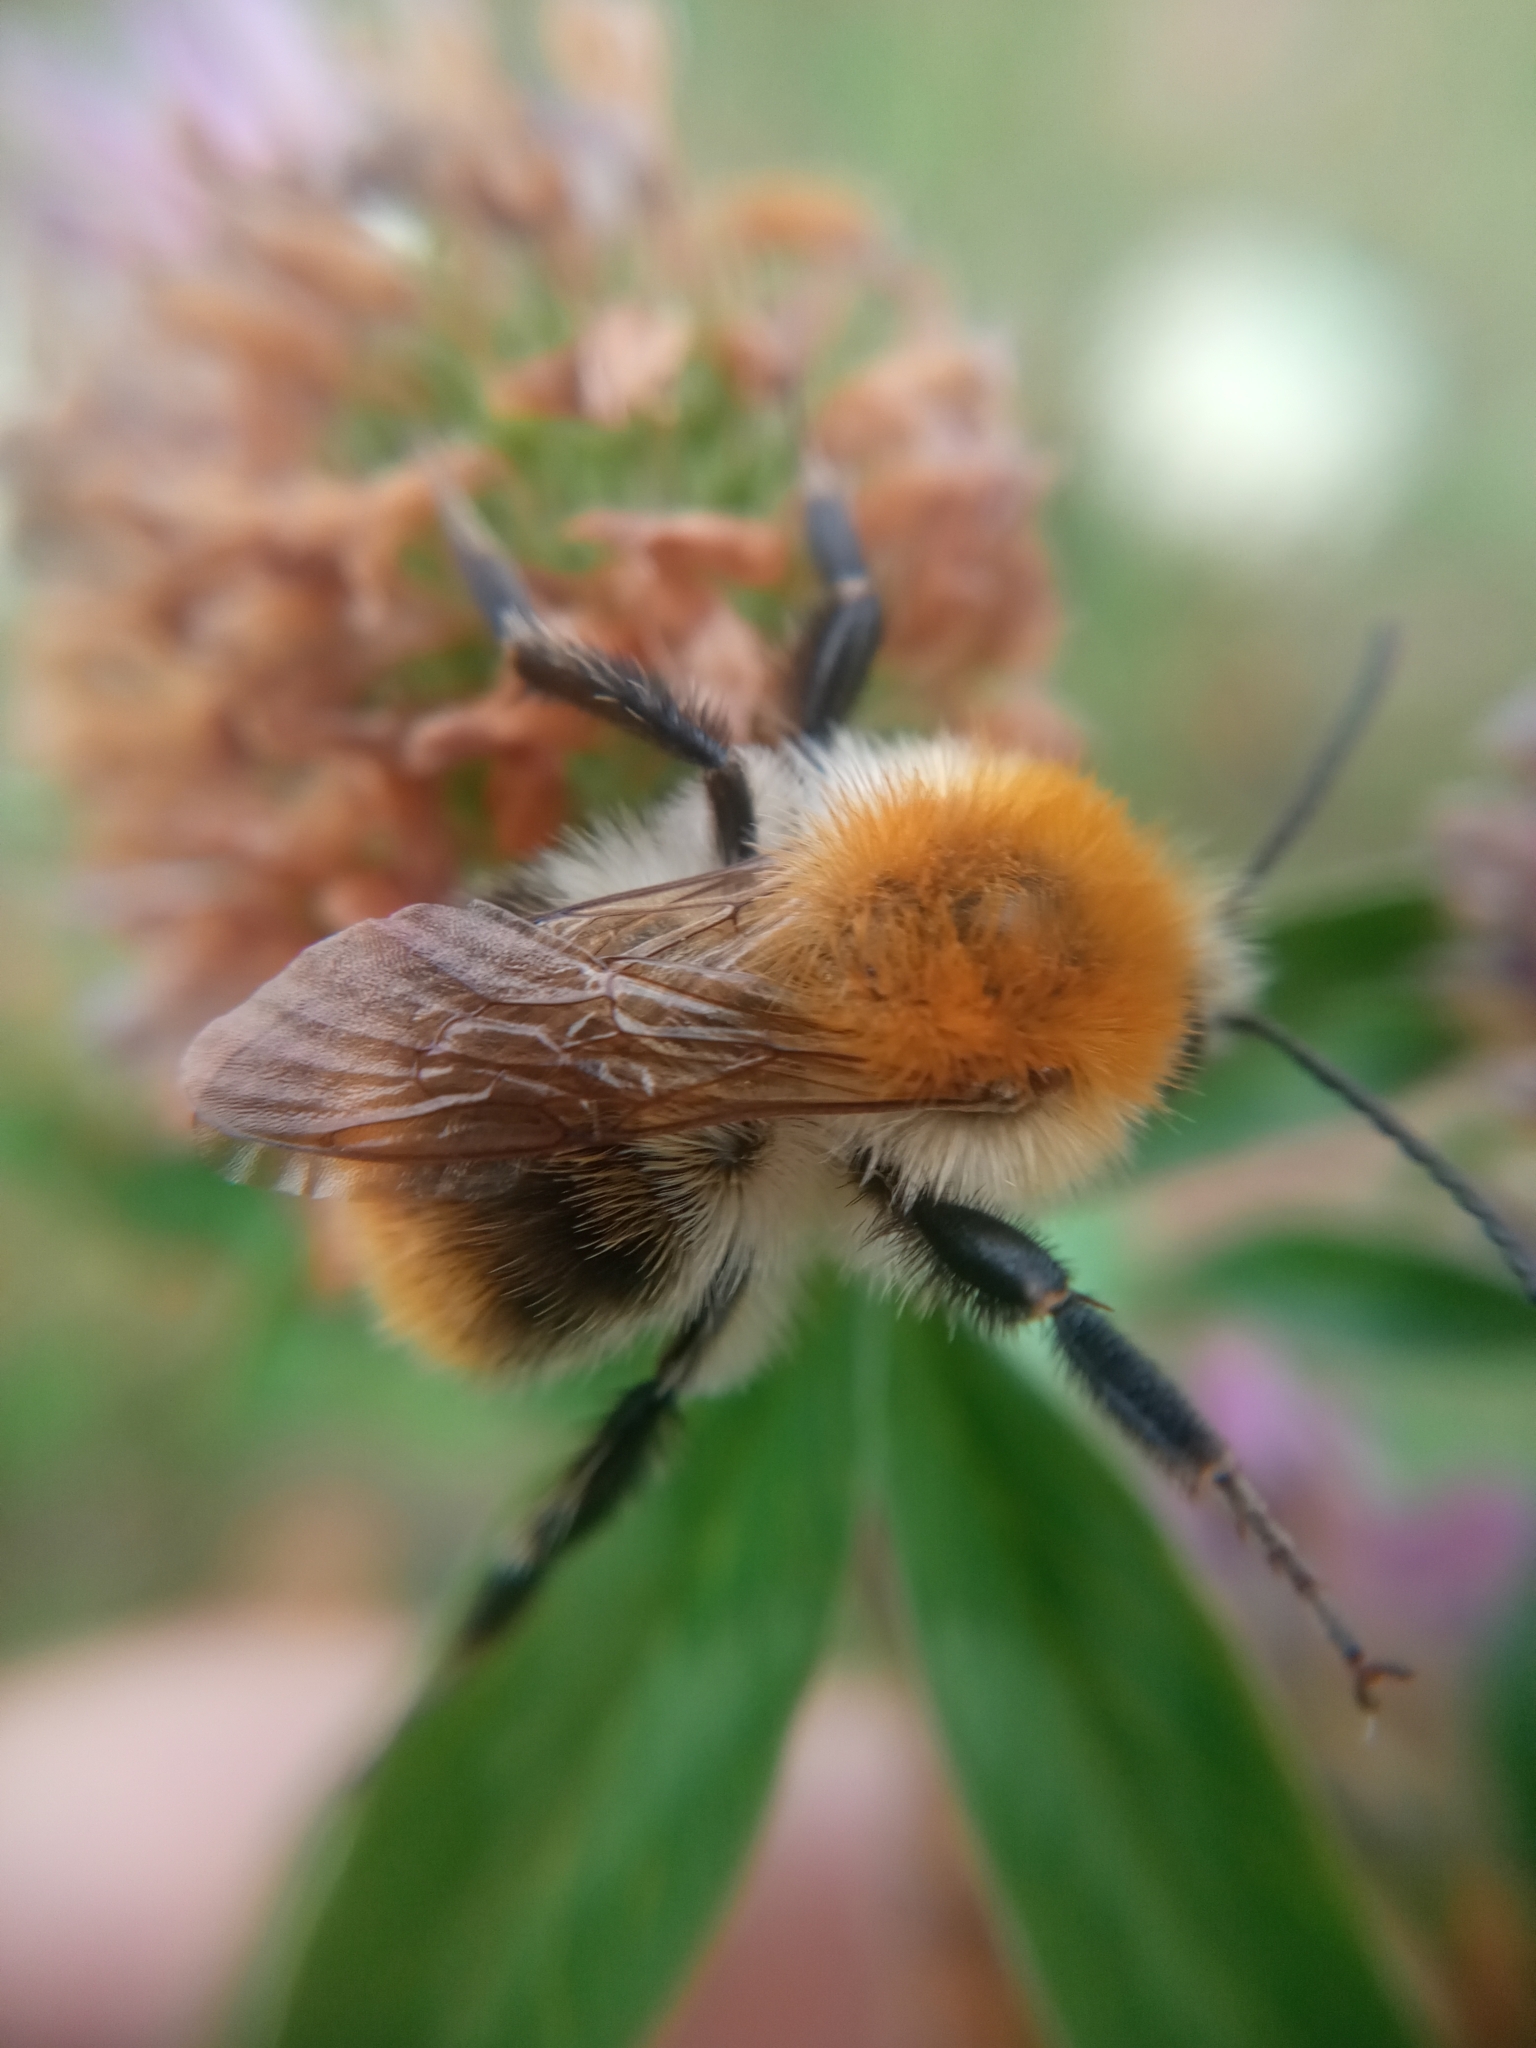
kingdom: Animalia
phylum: Arthropoda
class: Insecta
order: Hymenoptera
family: Apidae
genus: Bombus
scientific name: Bombus pascuorum
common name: Common carder bee
